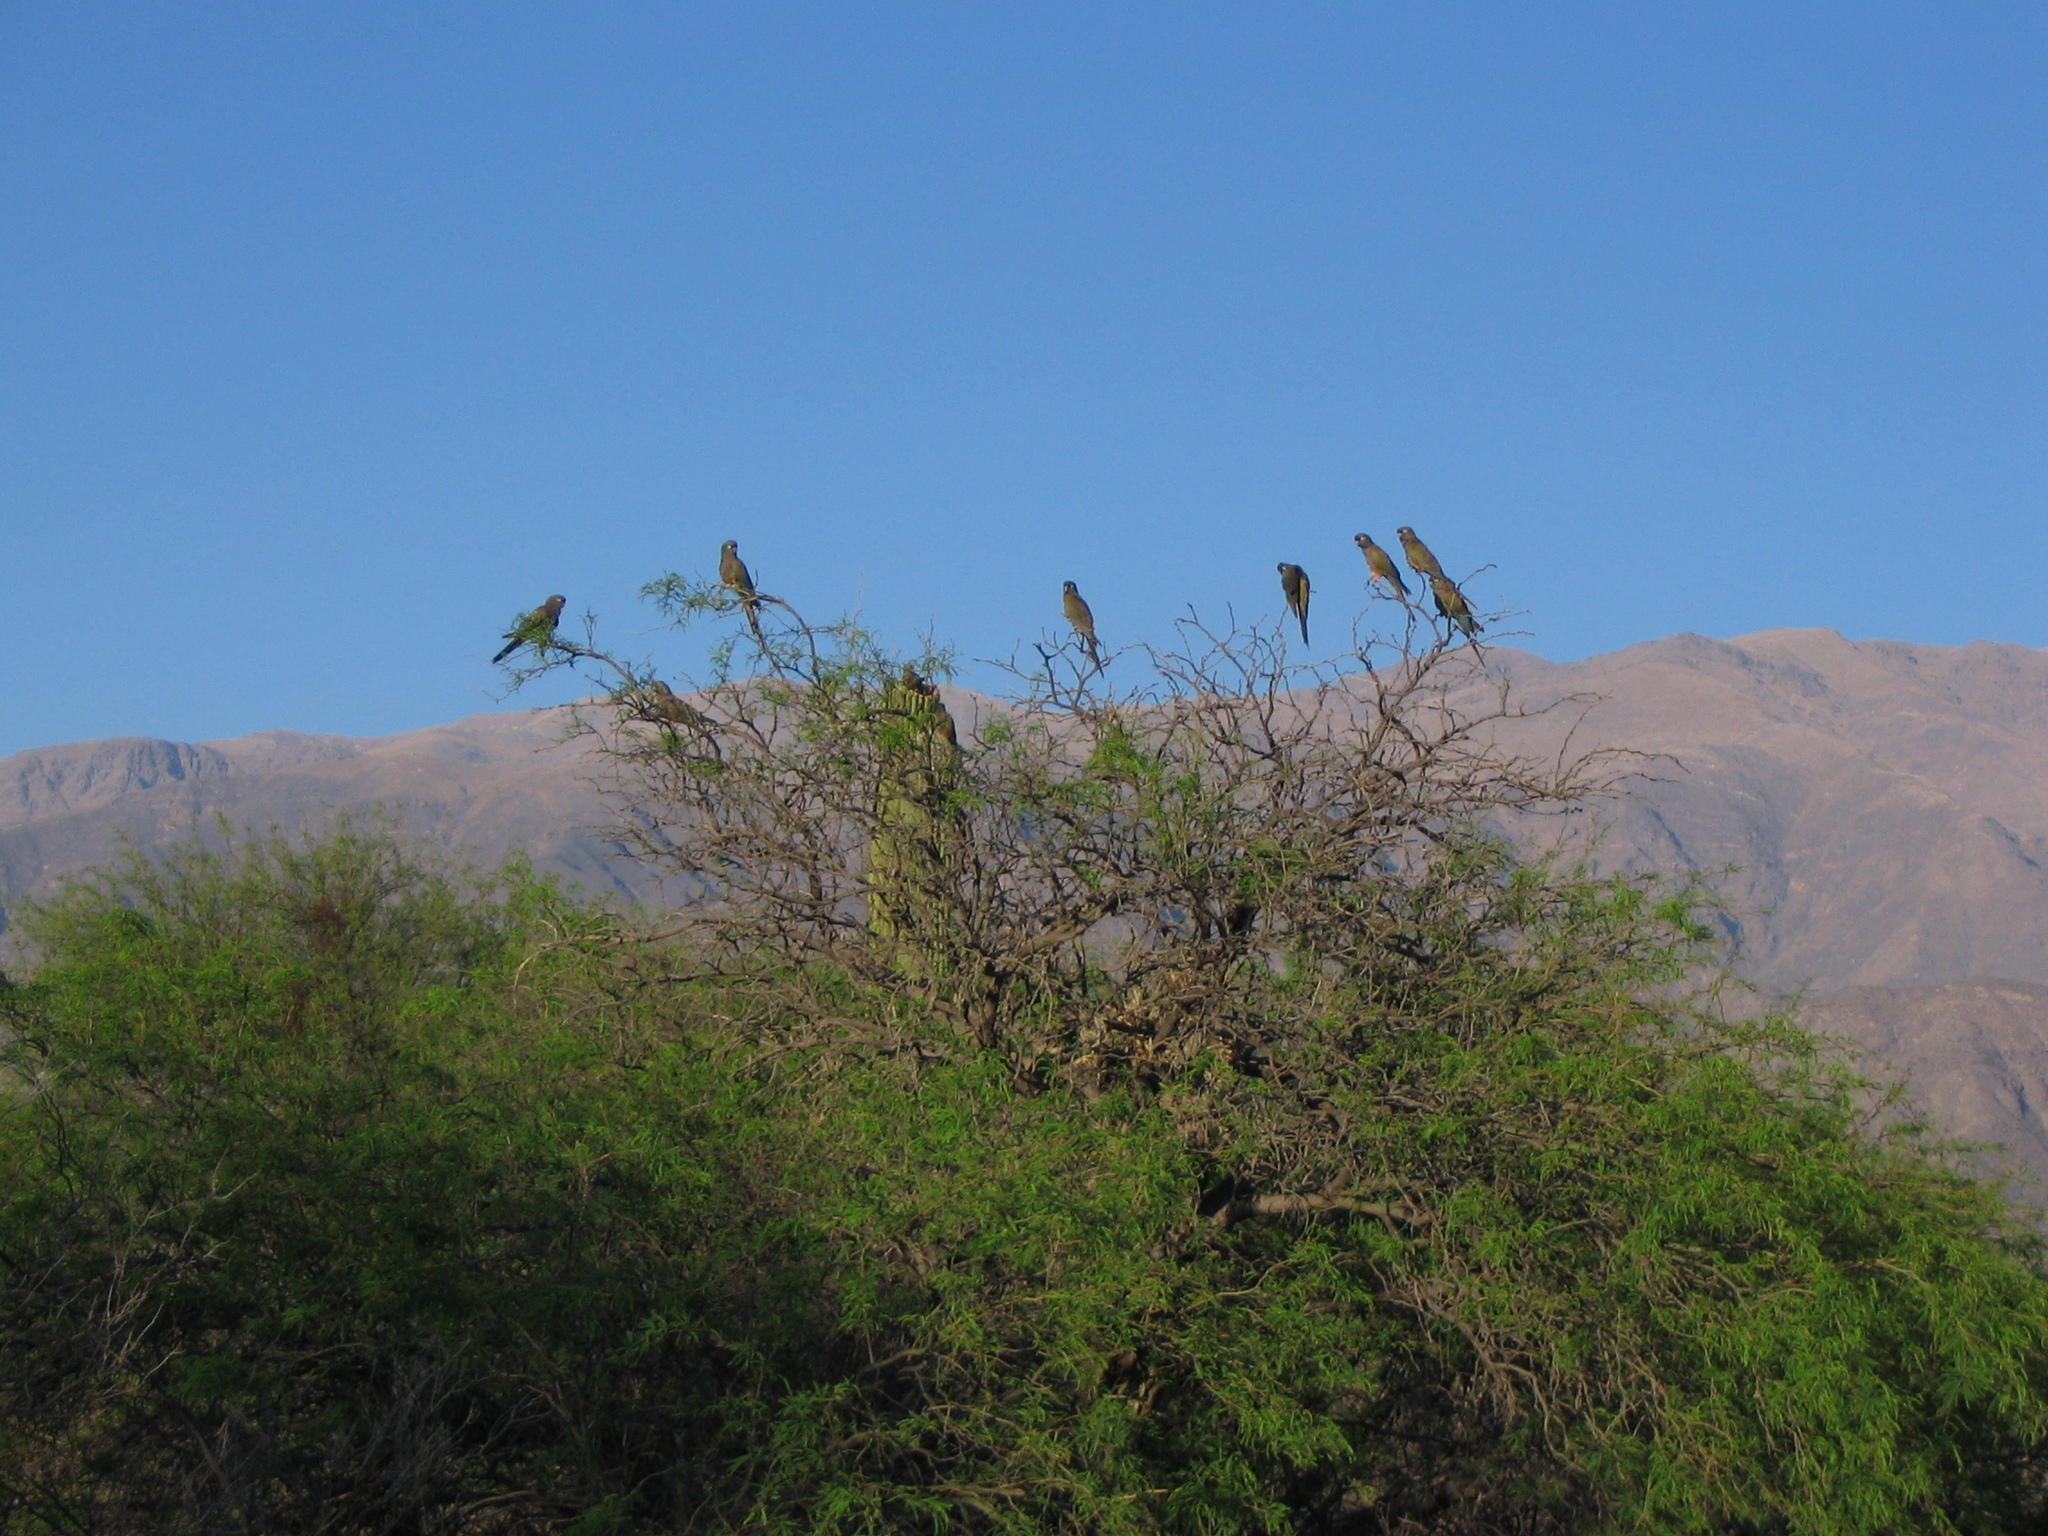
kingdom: Animalia
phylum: Chordata
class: Aves
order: Psittaciformes
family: Psittacidae
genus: Cyanoliseus
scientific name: Cyanoliseus patagonus
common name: Burrowing parrot
